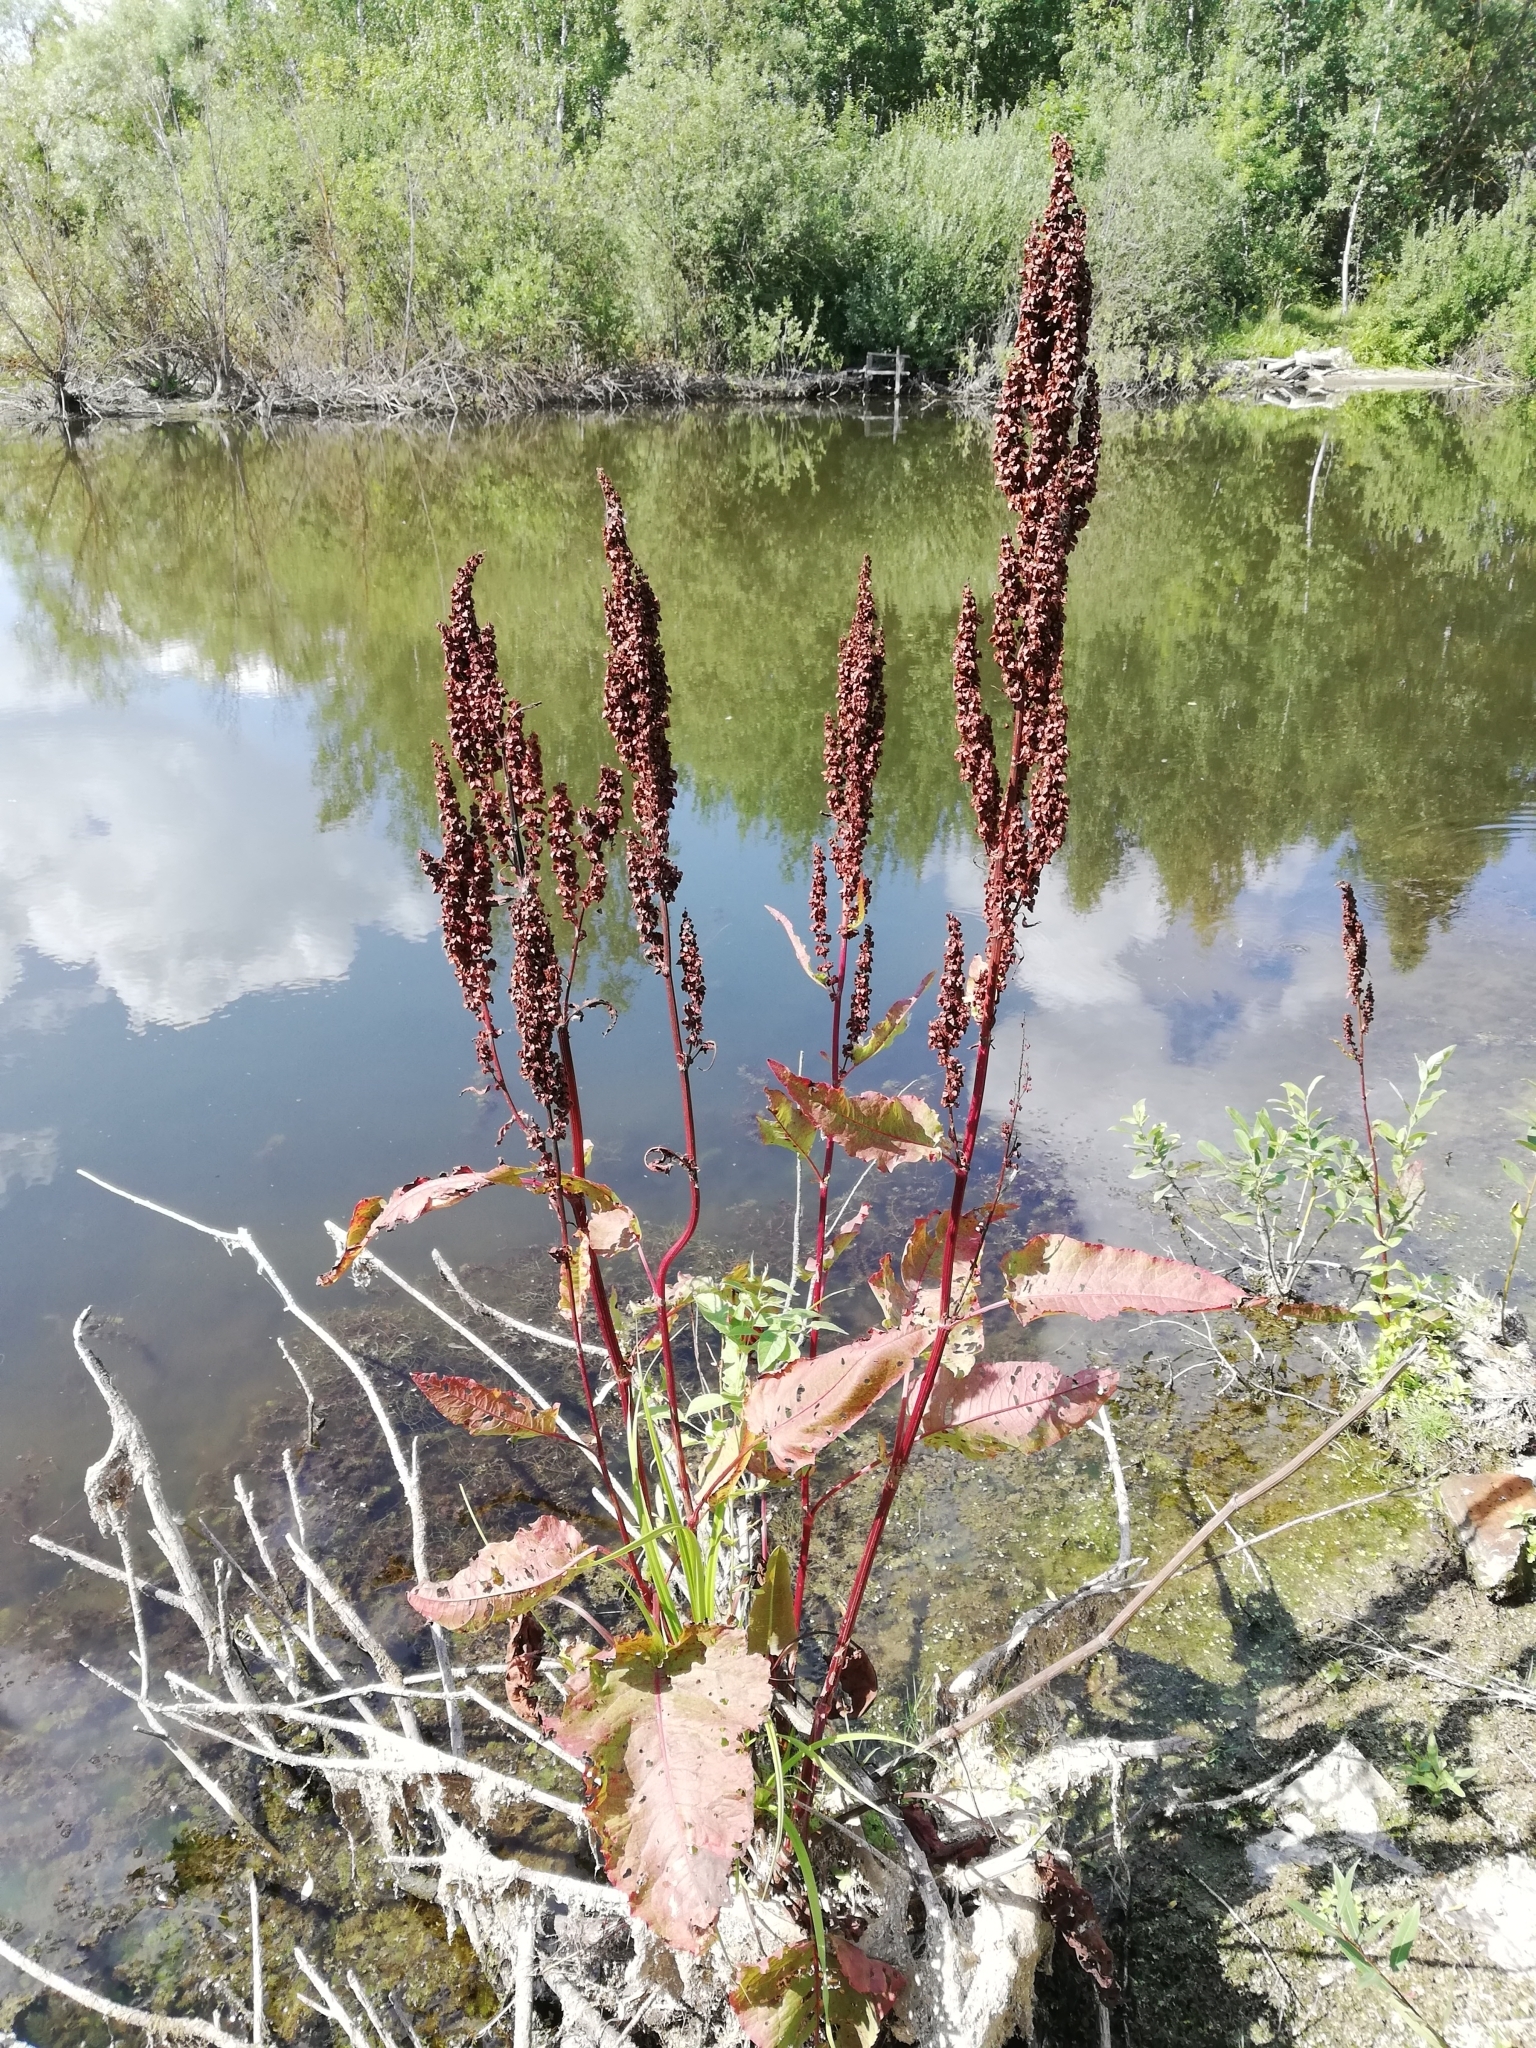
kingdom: Plantae
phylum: Tracheophyta
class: Magnoliopsida
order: Caryophyllales
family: Polygonaceae
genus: Rumex
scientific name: Rumex aquaticus
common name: Scottish dock
